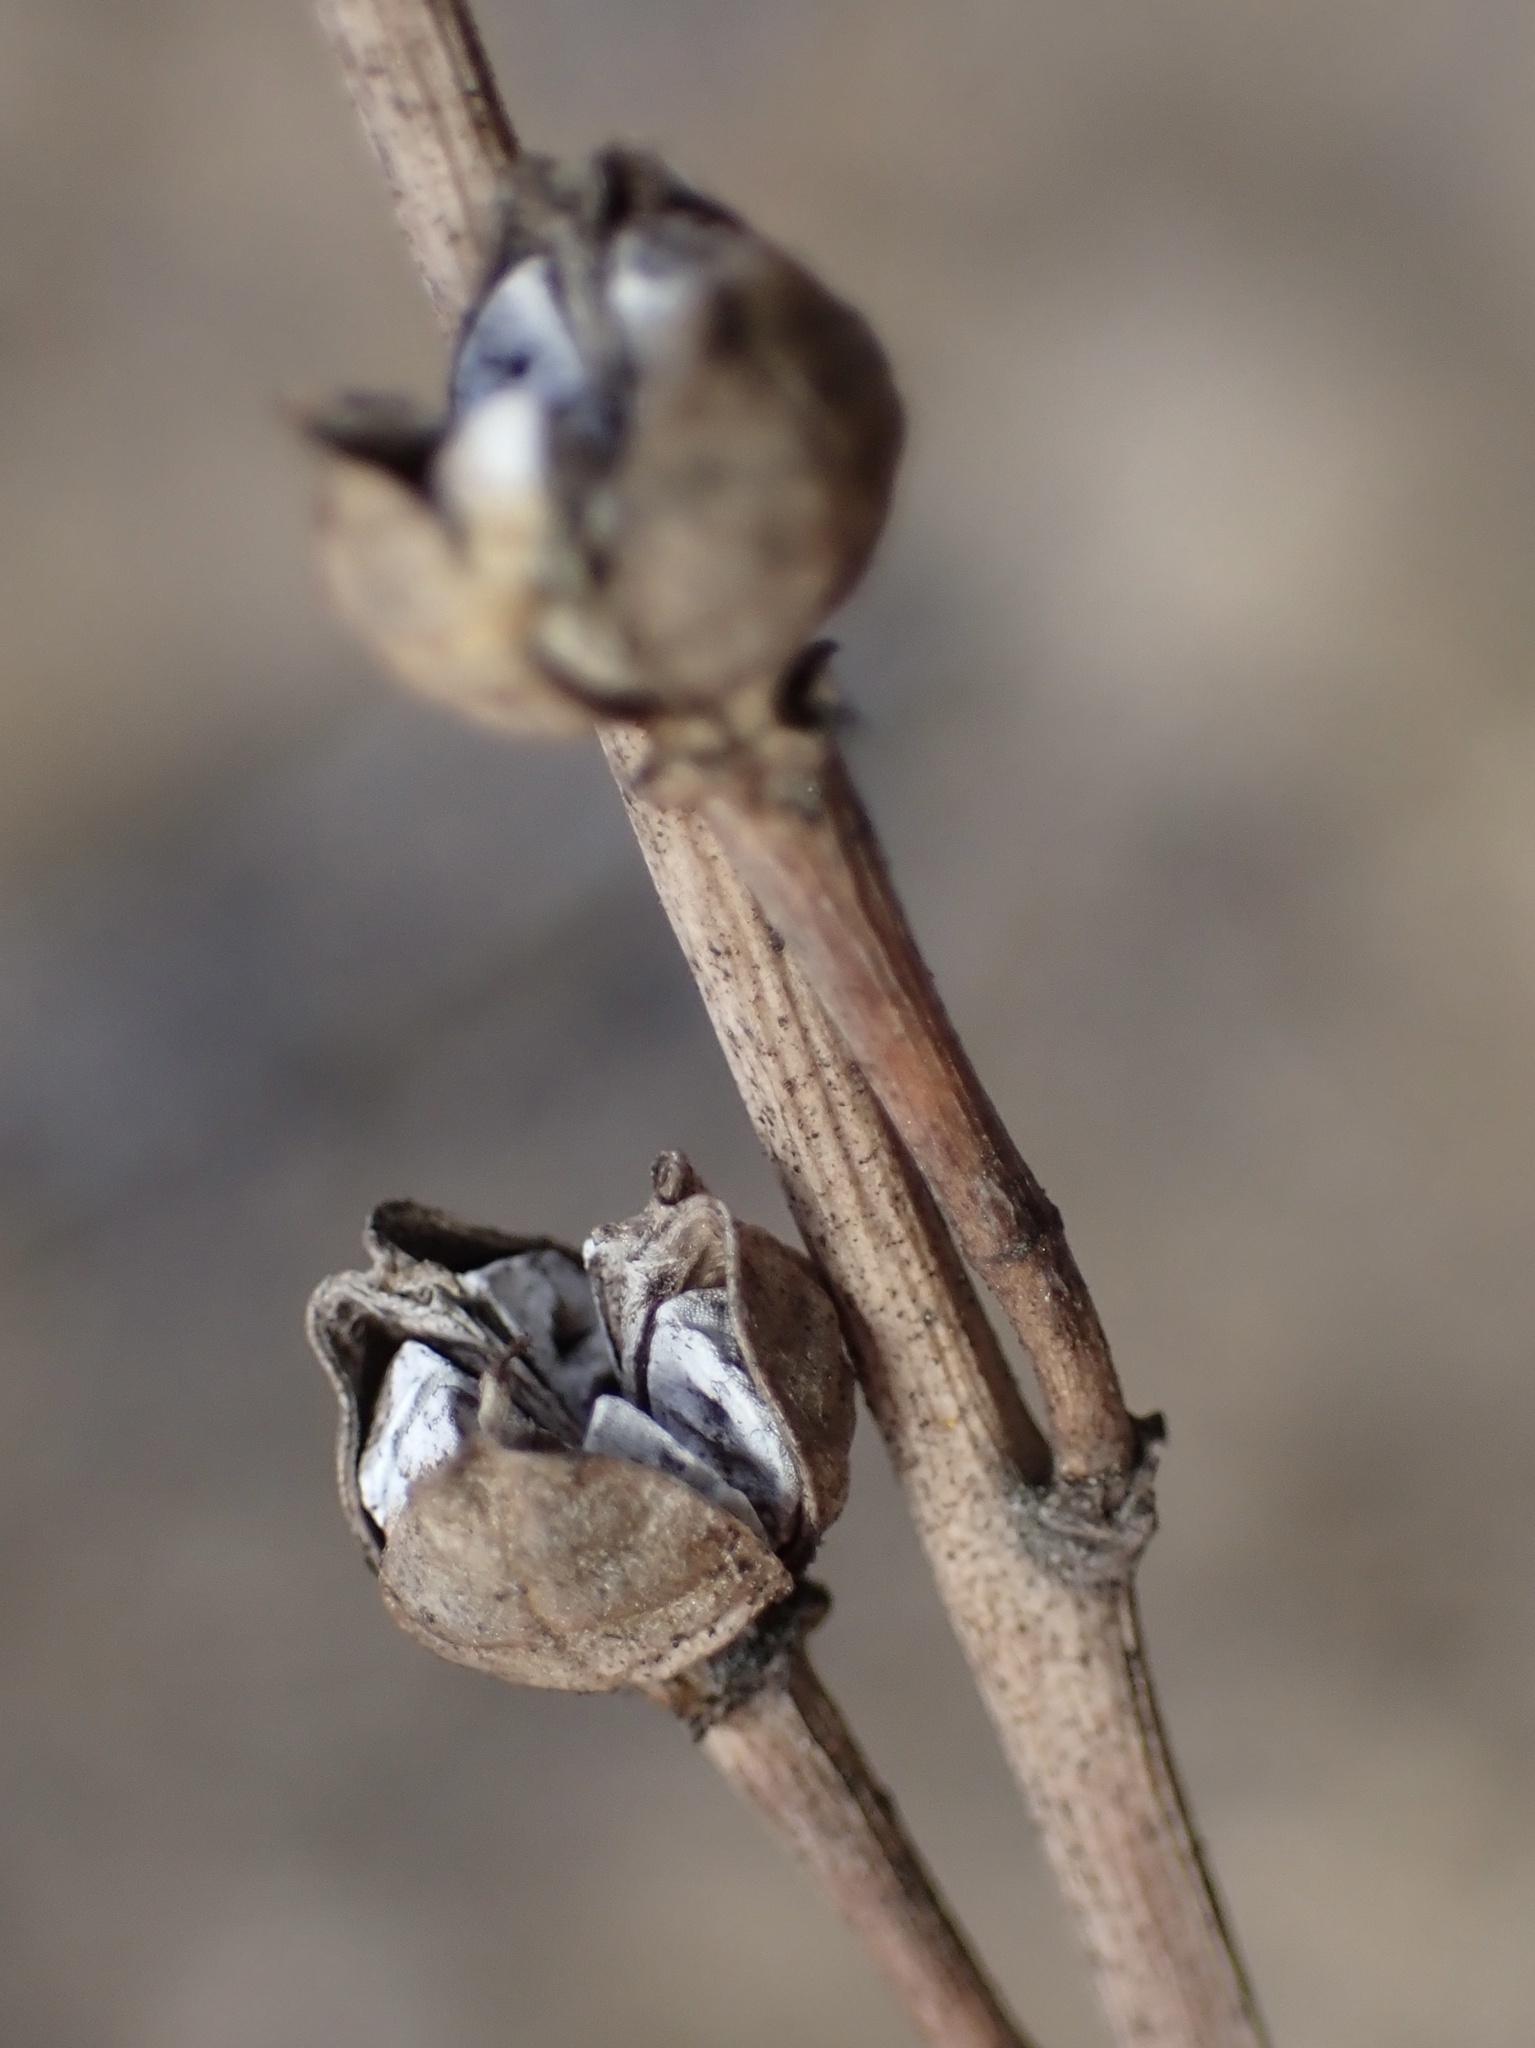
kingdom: Plantae
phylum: Tracheophyta
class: Liliopsida
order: Asparagales
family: Asphodelaceae
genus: Asphodelus
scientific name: Asphodelus fistulosus
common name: Onionweed
